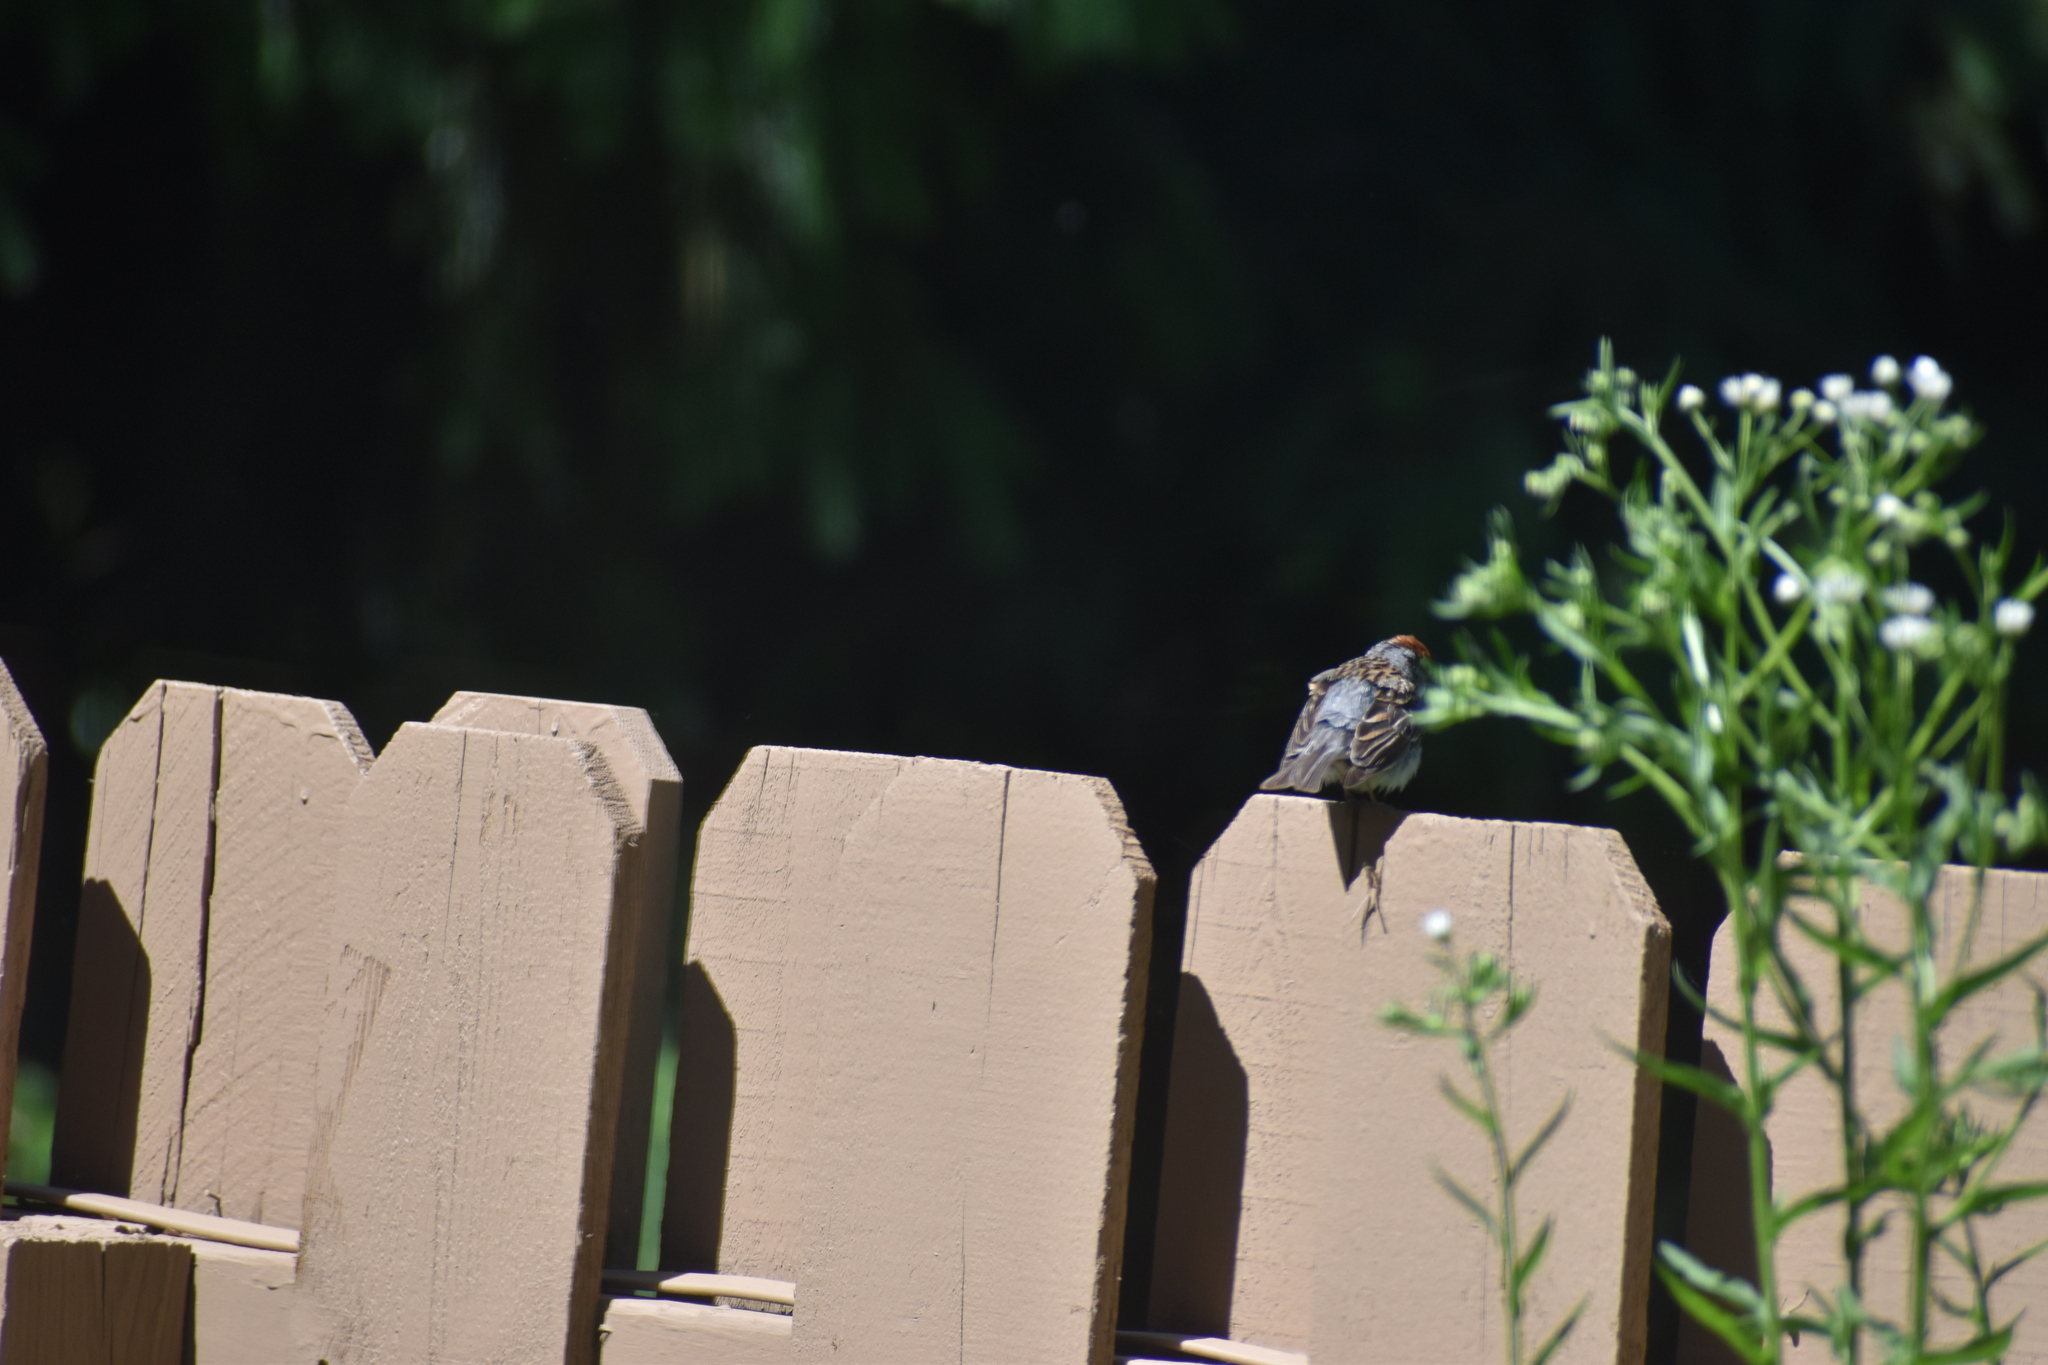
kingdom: Animalia
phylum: Chordata
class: Aves
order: Passeriformes
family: Passerellidae
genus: Spizella
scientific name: Spizella passerina
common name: Chipping sparrow
